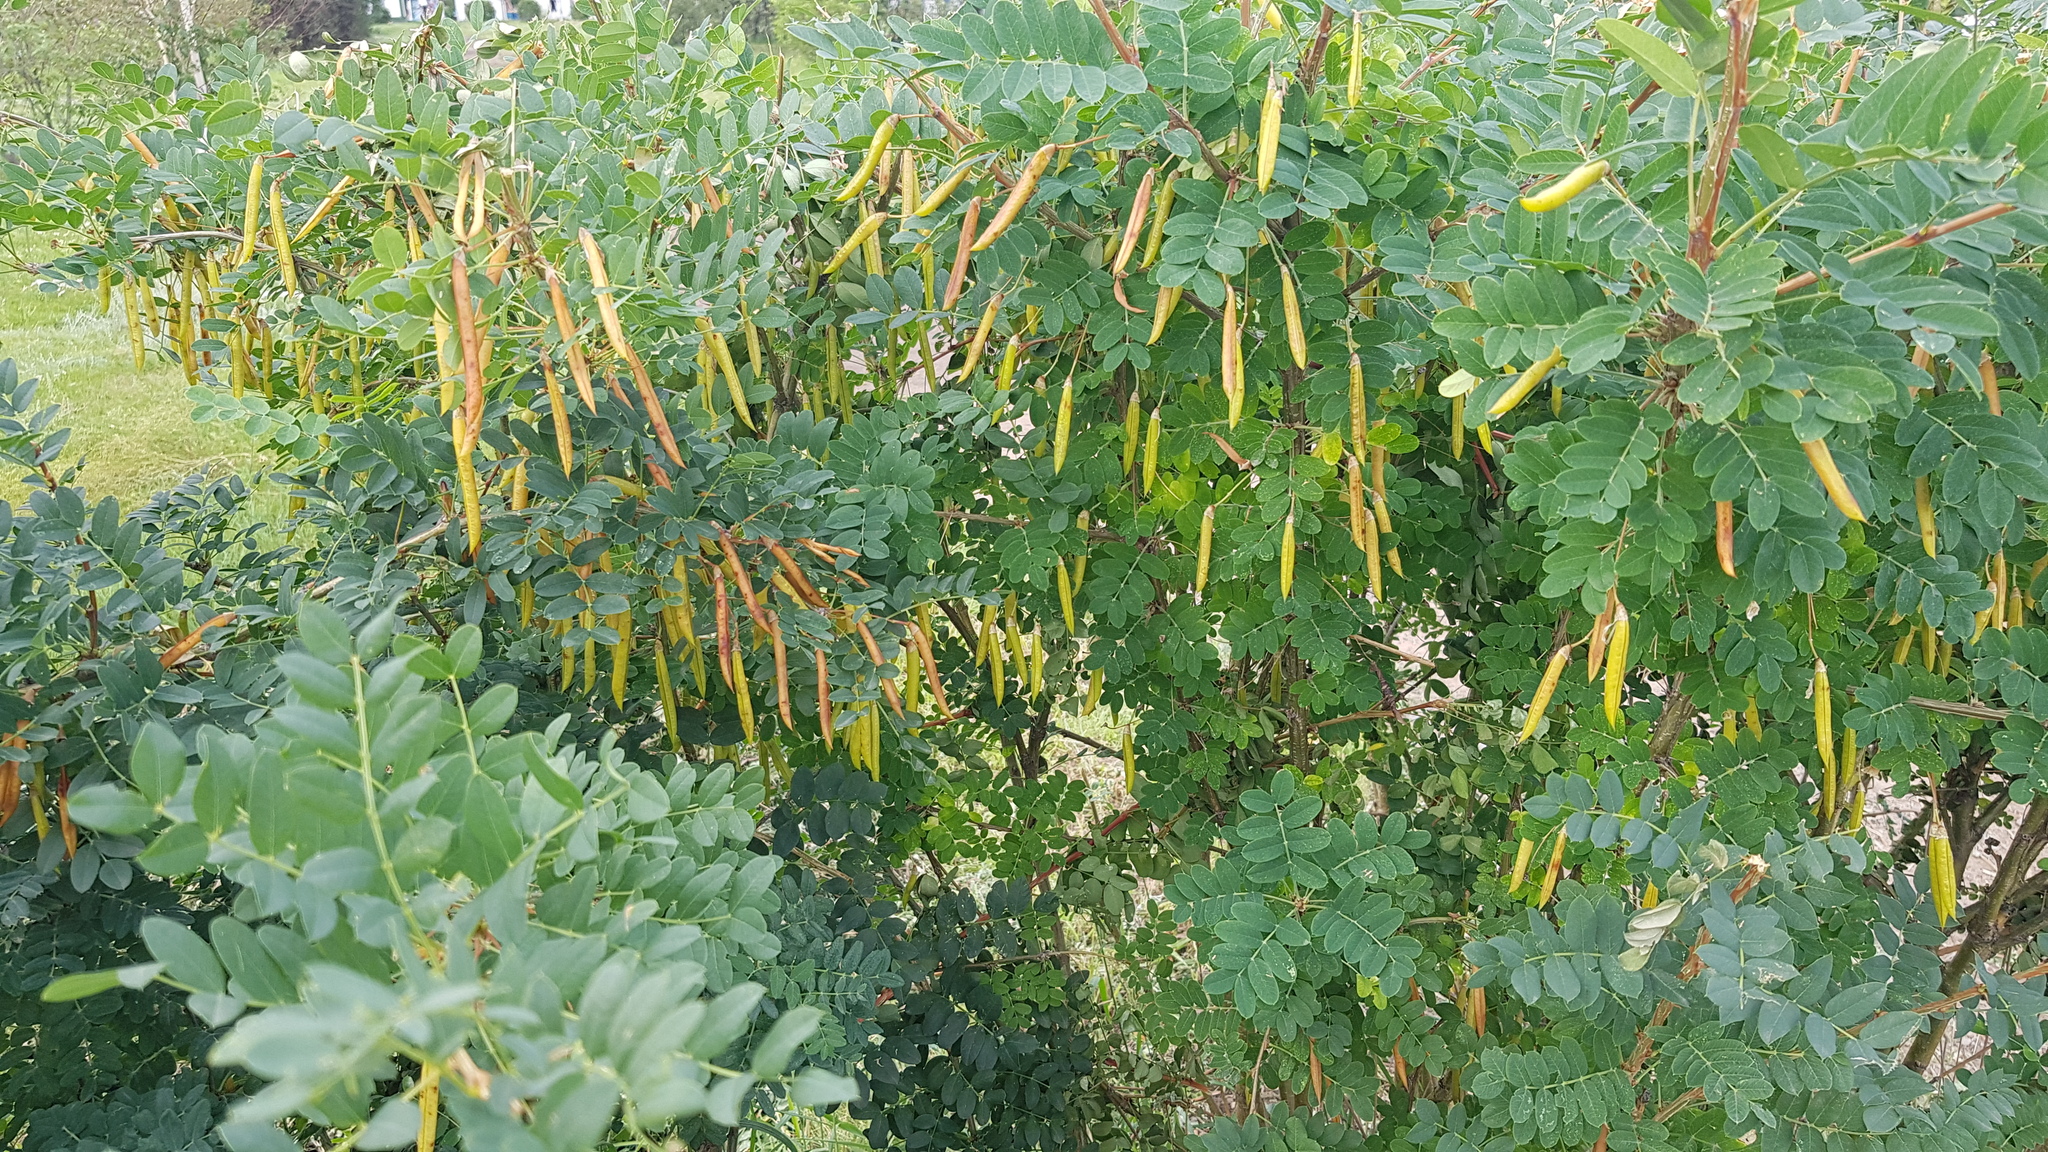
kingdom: Plantae
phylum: Tracheophyta
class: Magnoliopsida
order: Fabales
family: Fabaceae
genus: Caragana
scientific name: Caragana arborescens
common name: Siberian peashrub
